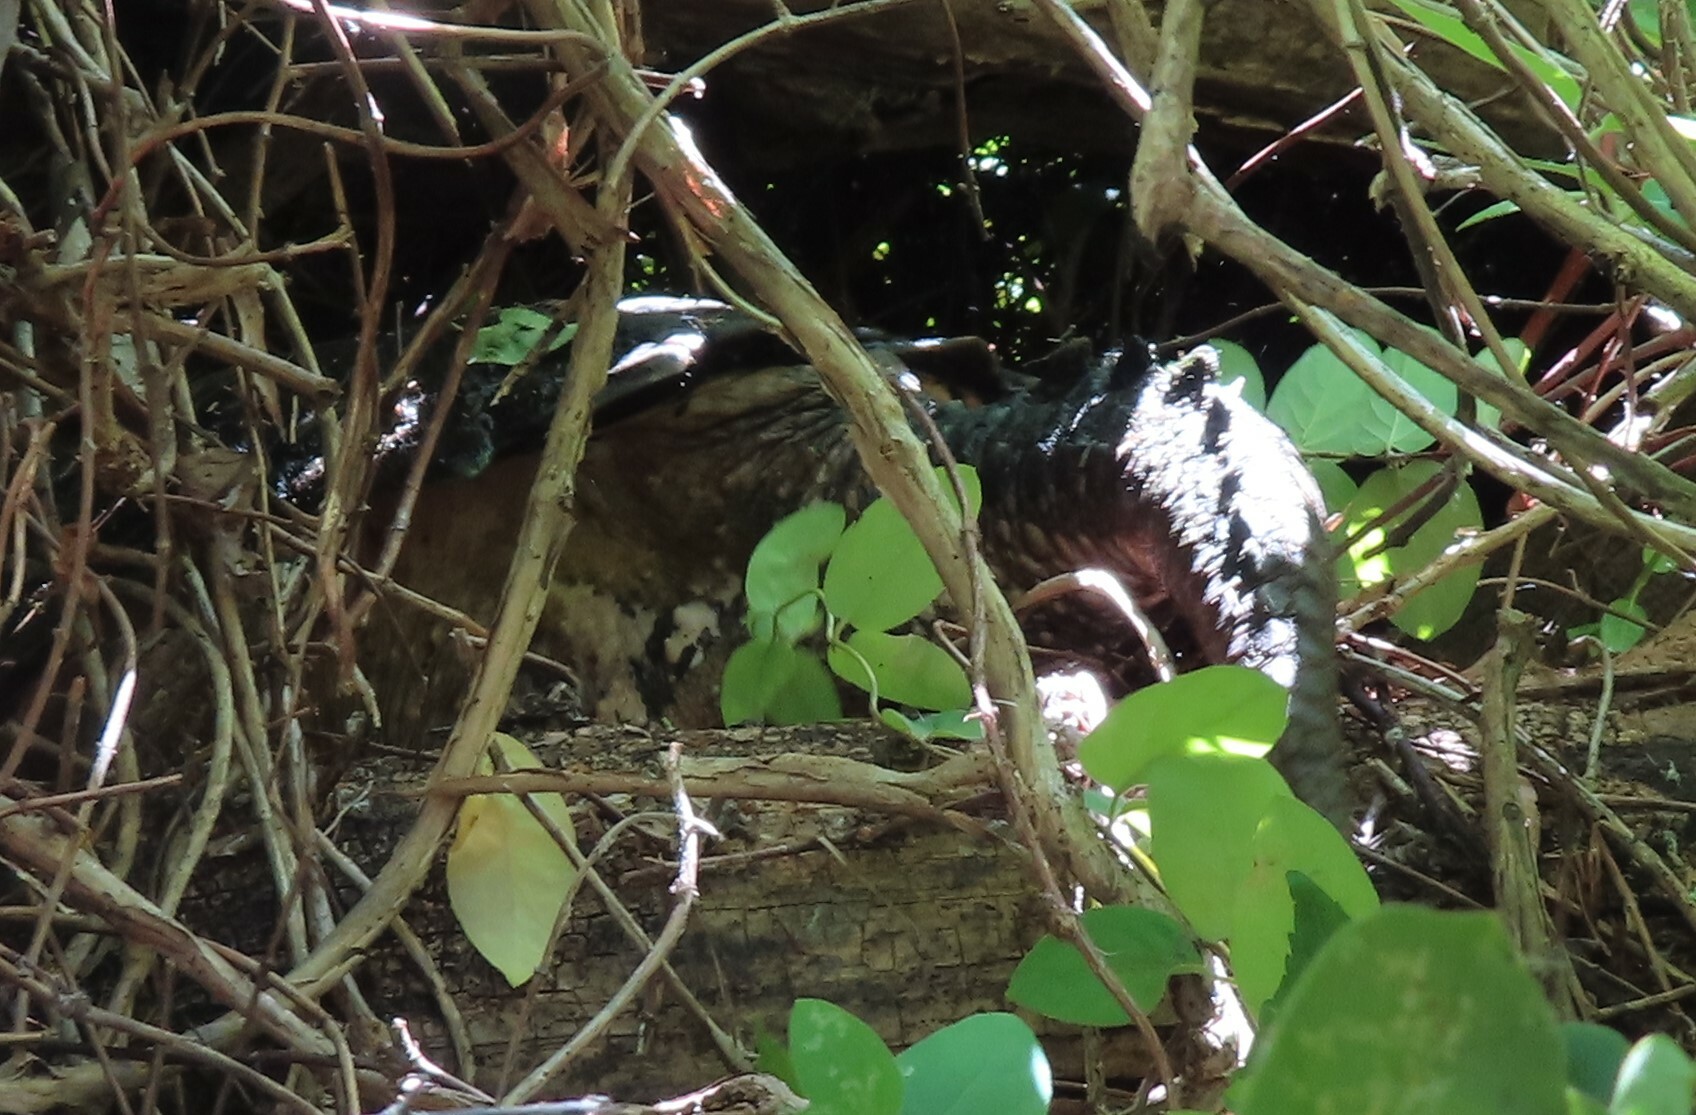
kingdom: Animalia
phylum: Chordata
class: Testudines
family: Chelydridae
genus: Chelydra
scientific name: Chelydra serpentina
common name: Common snapping turtle
